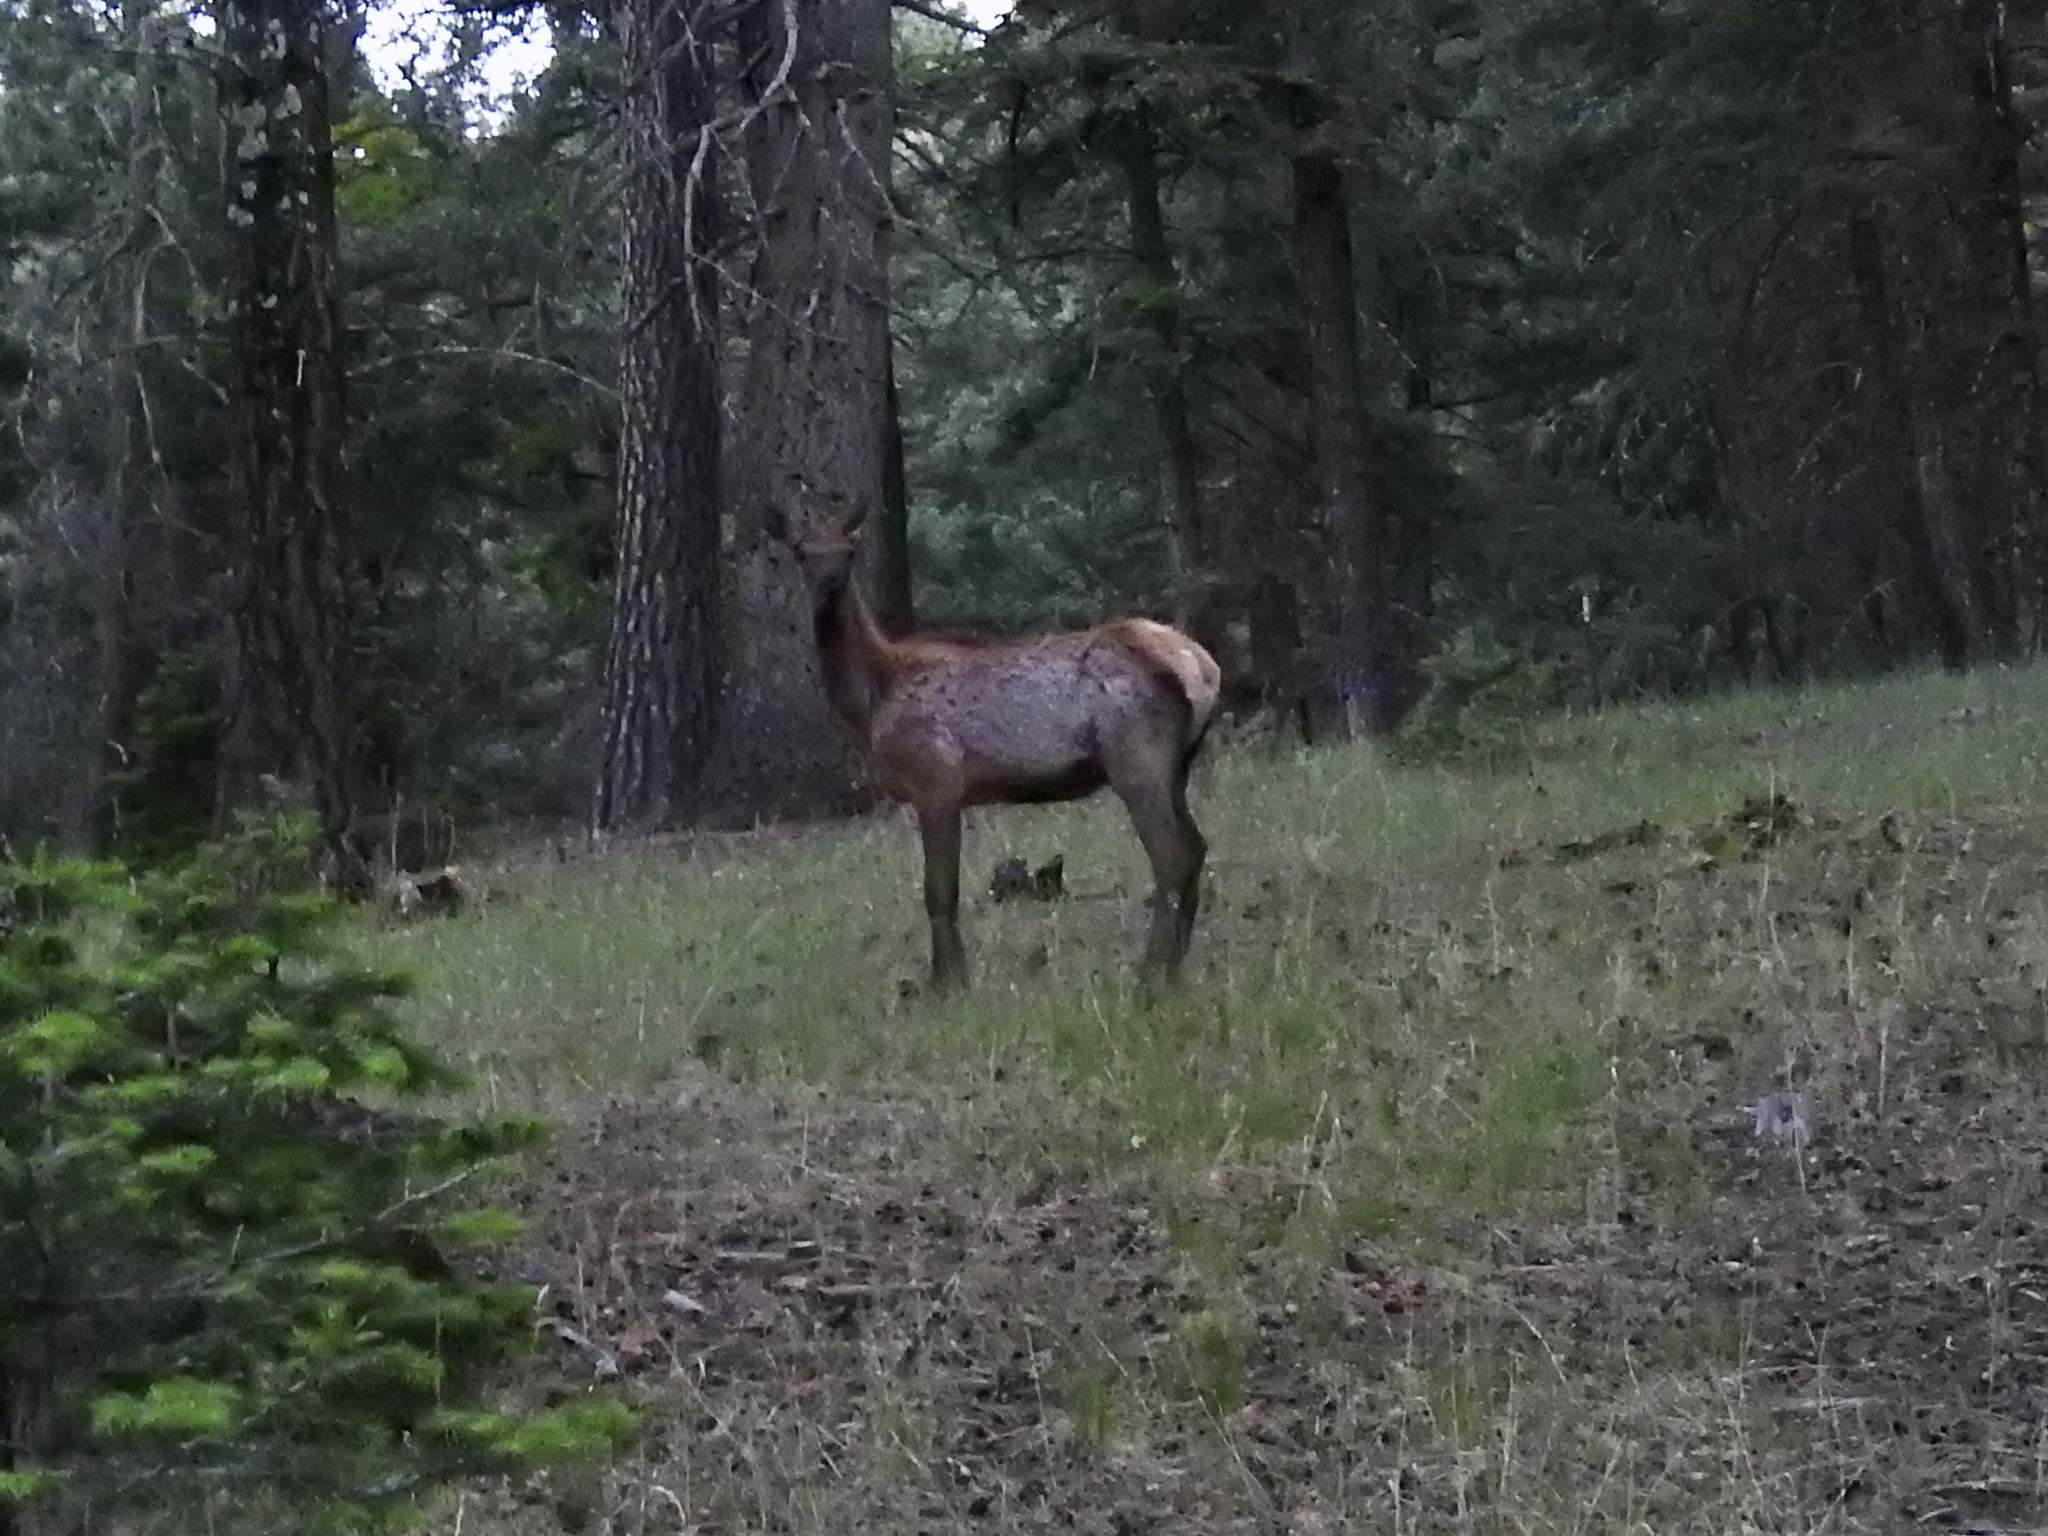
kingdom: Animalia
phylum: Chordata
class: Mammalia
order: Artiodactyla
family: Cervidae
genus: Cervus
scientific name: Cervus elaphus
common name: Red deer
